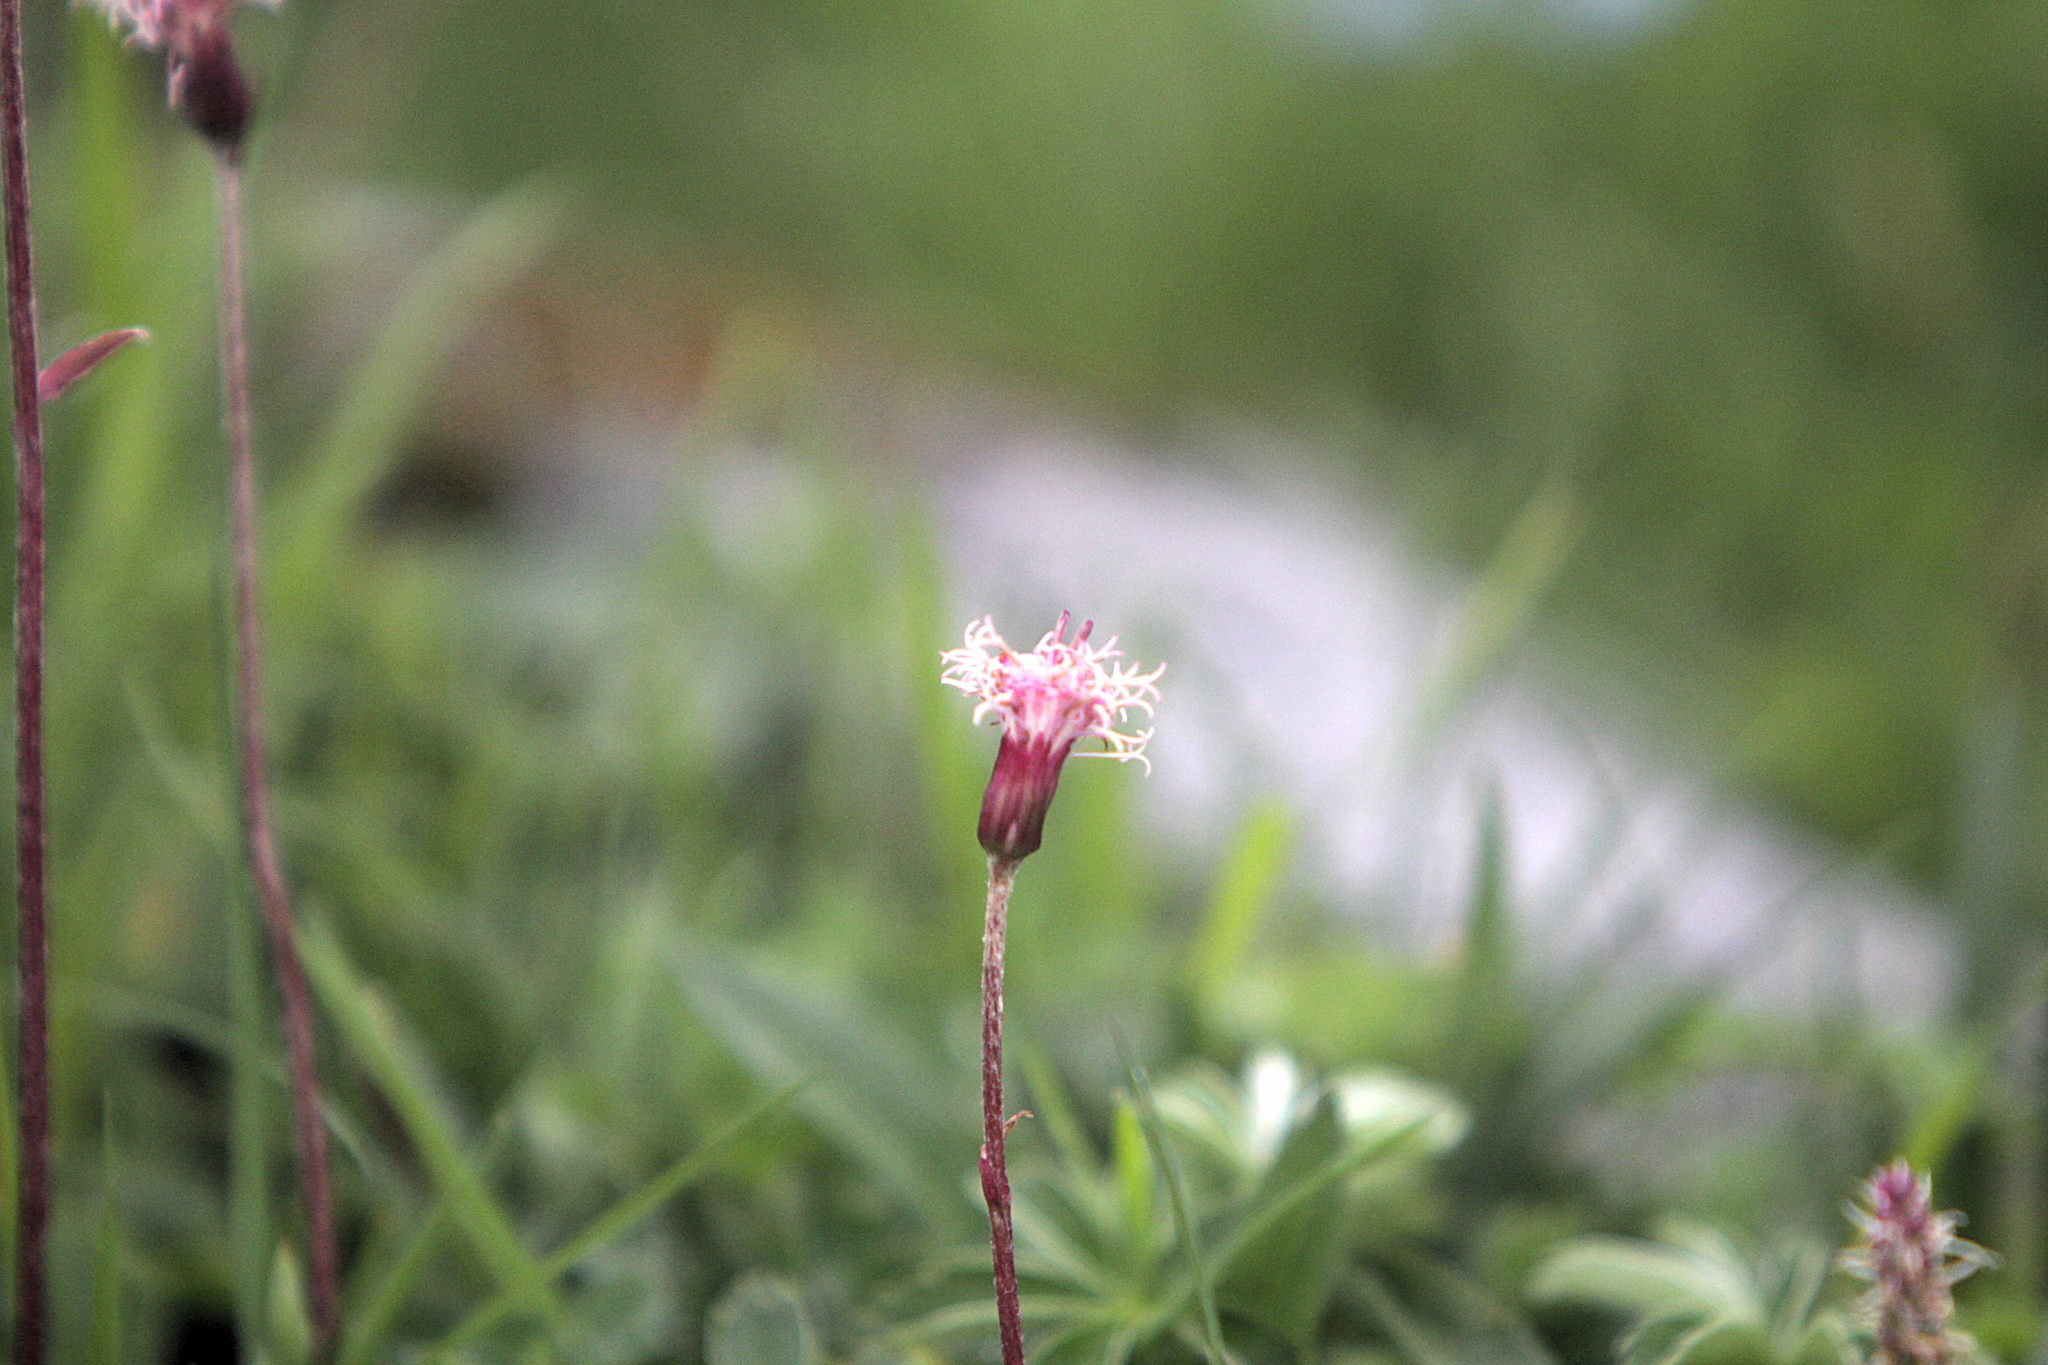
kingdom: Plantae
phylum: Tracheophyta
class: Magnoliopsida
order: Asterales
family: Asteraceae
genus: Homogyne
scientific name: Homogyne alpina
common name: Purple colt's-foot
